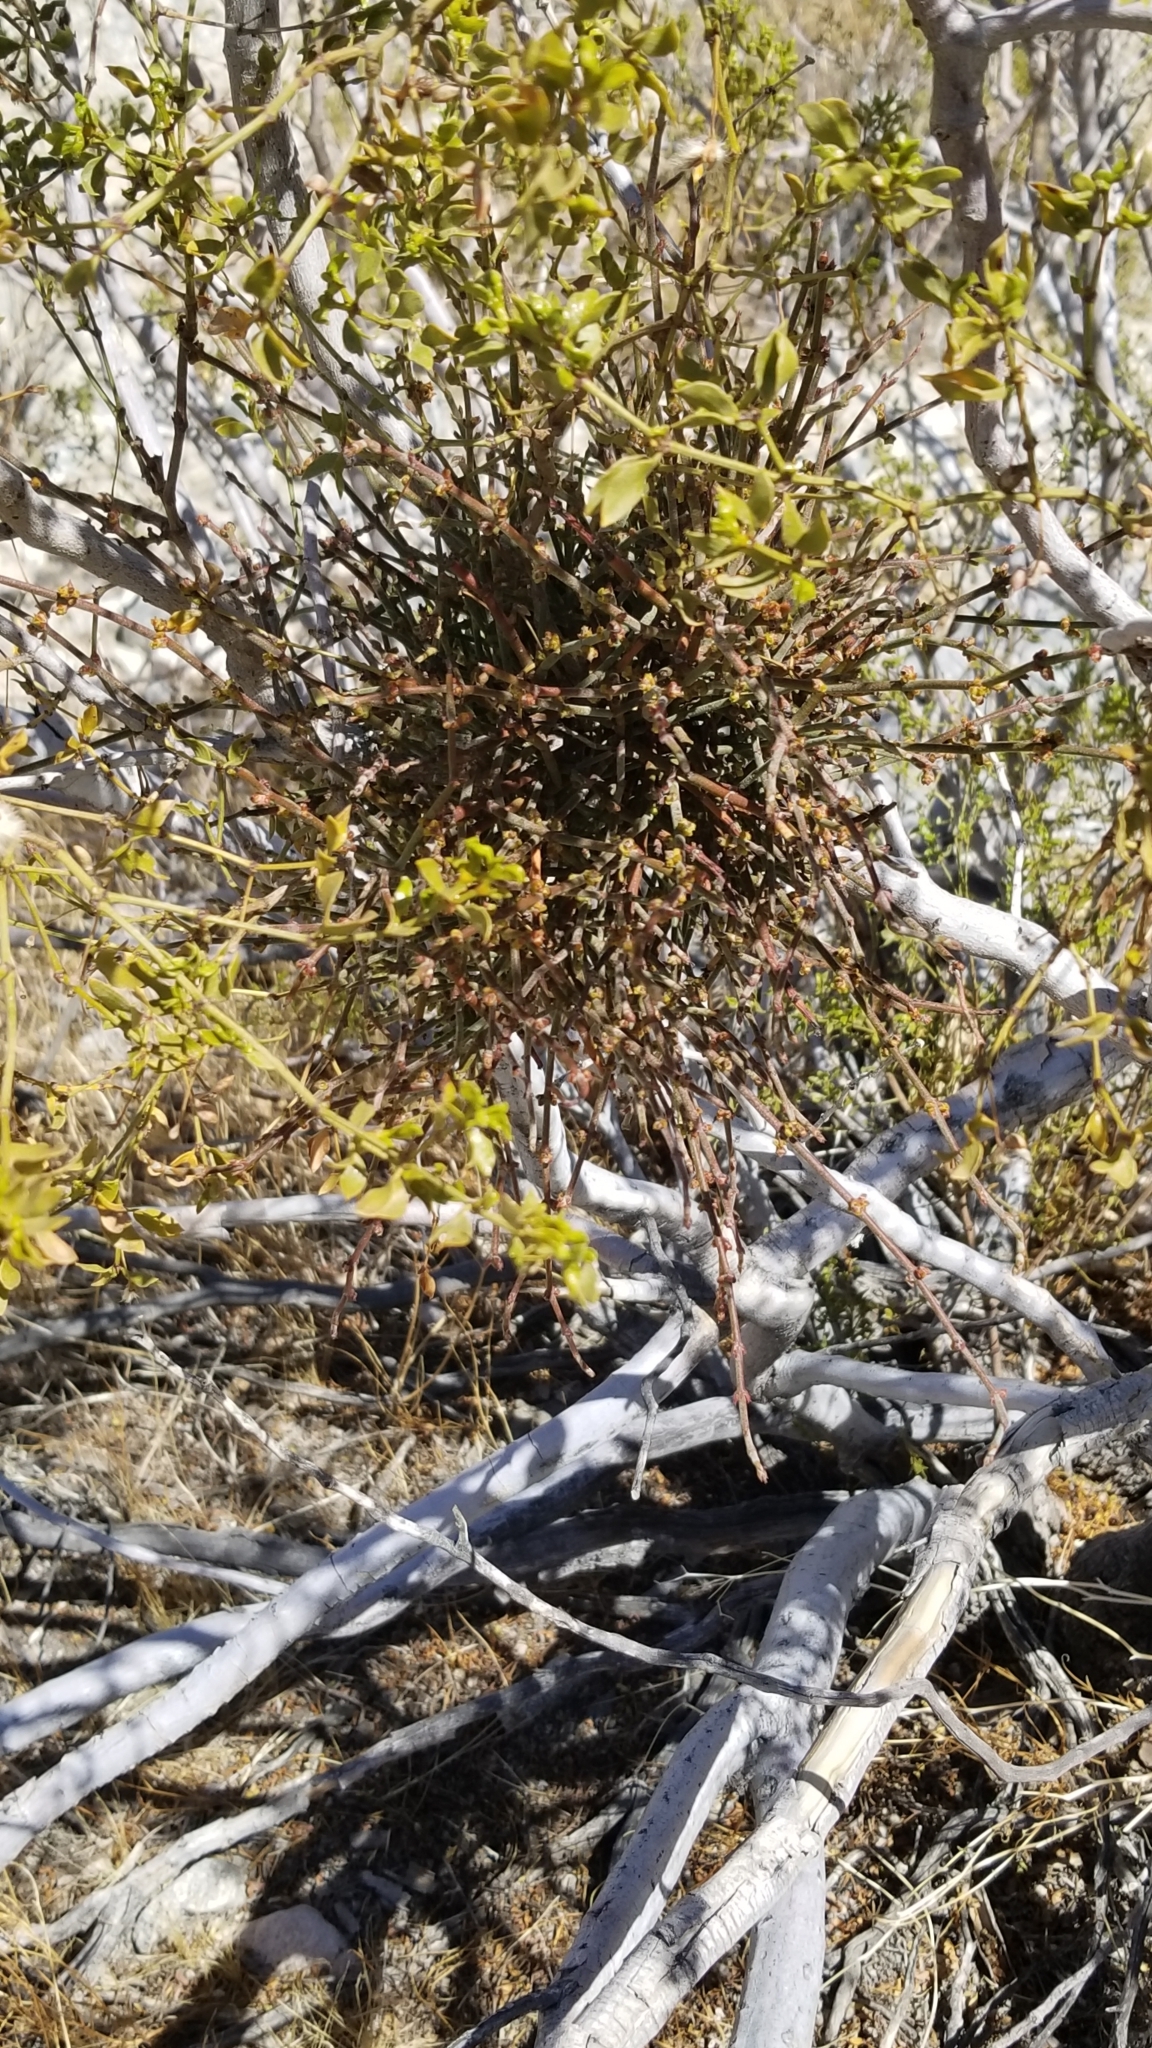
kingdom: Plantae
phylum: Tracheophyta
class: Magnoliopsida
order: Santalales
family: Viscaceae
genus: Phoradendron
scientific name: Phoradendron californicum
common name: Acacia mistletoe
